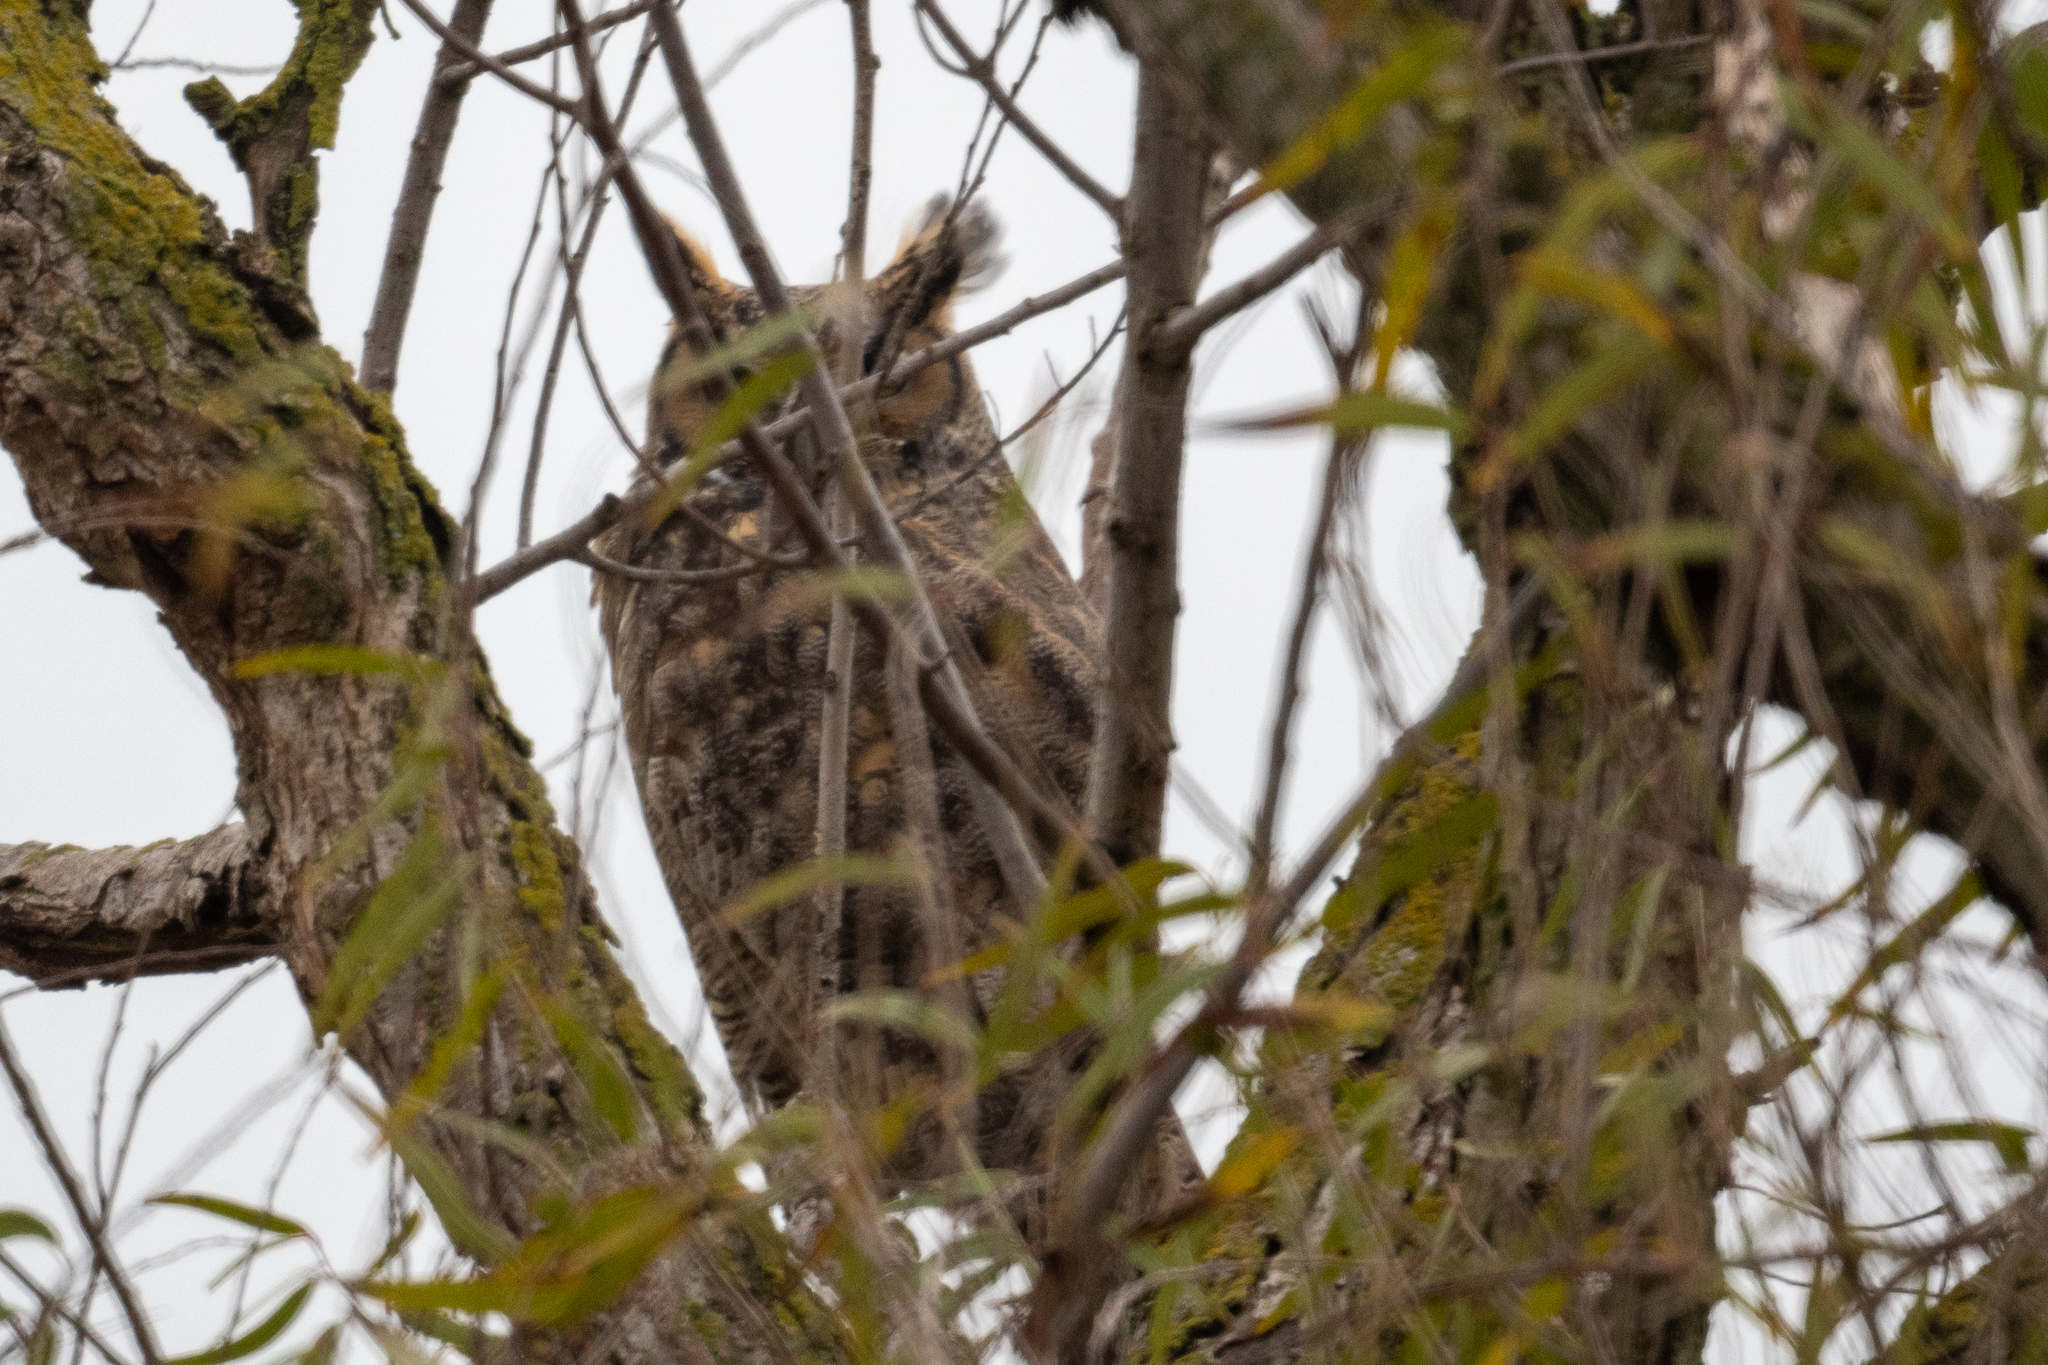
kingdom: Animalia
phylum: Chordata
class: Aves
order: Strigiformes
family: Strigidae
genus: Bubo
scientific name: Bubo virginianus
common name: Great horned owl
